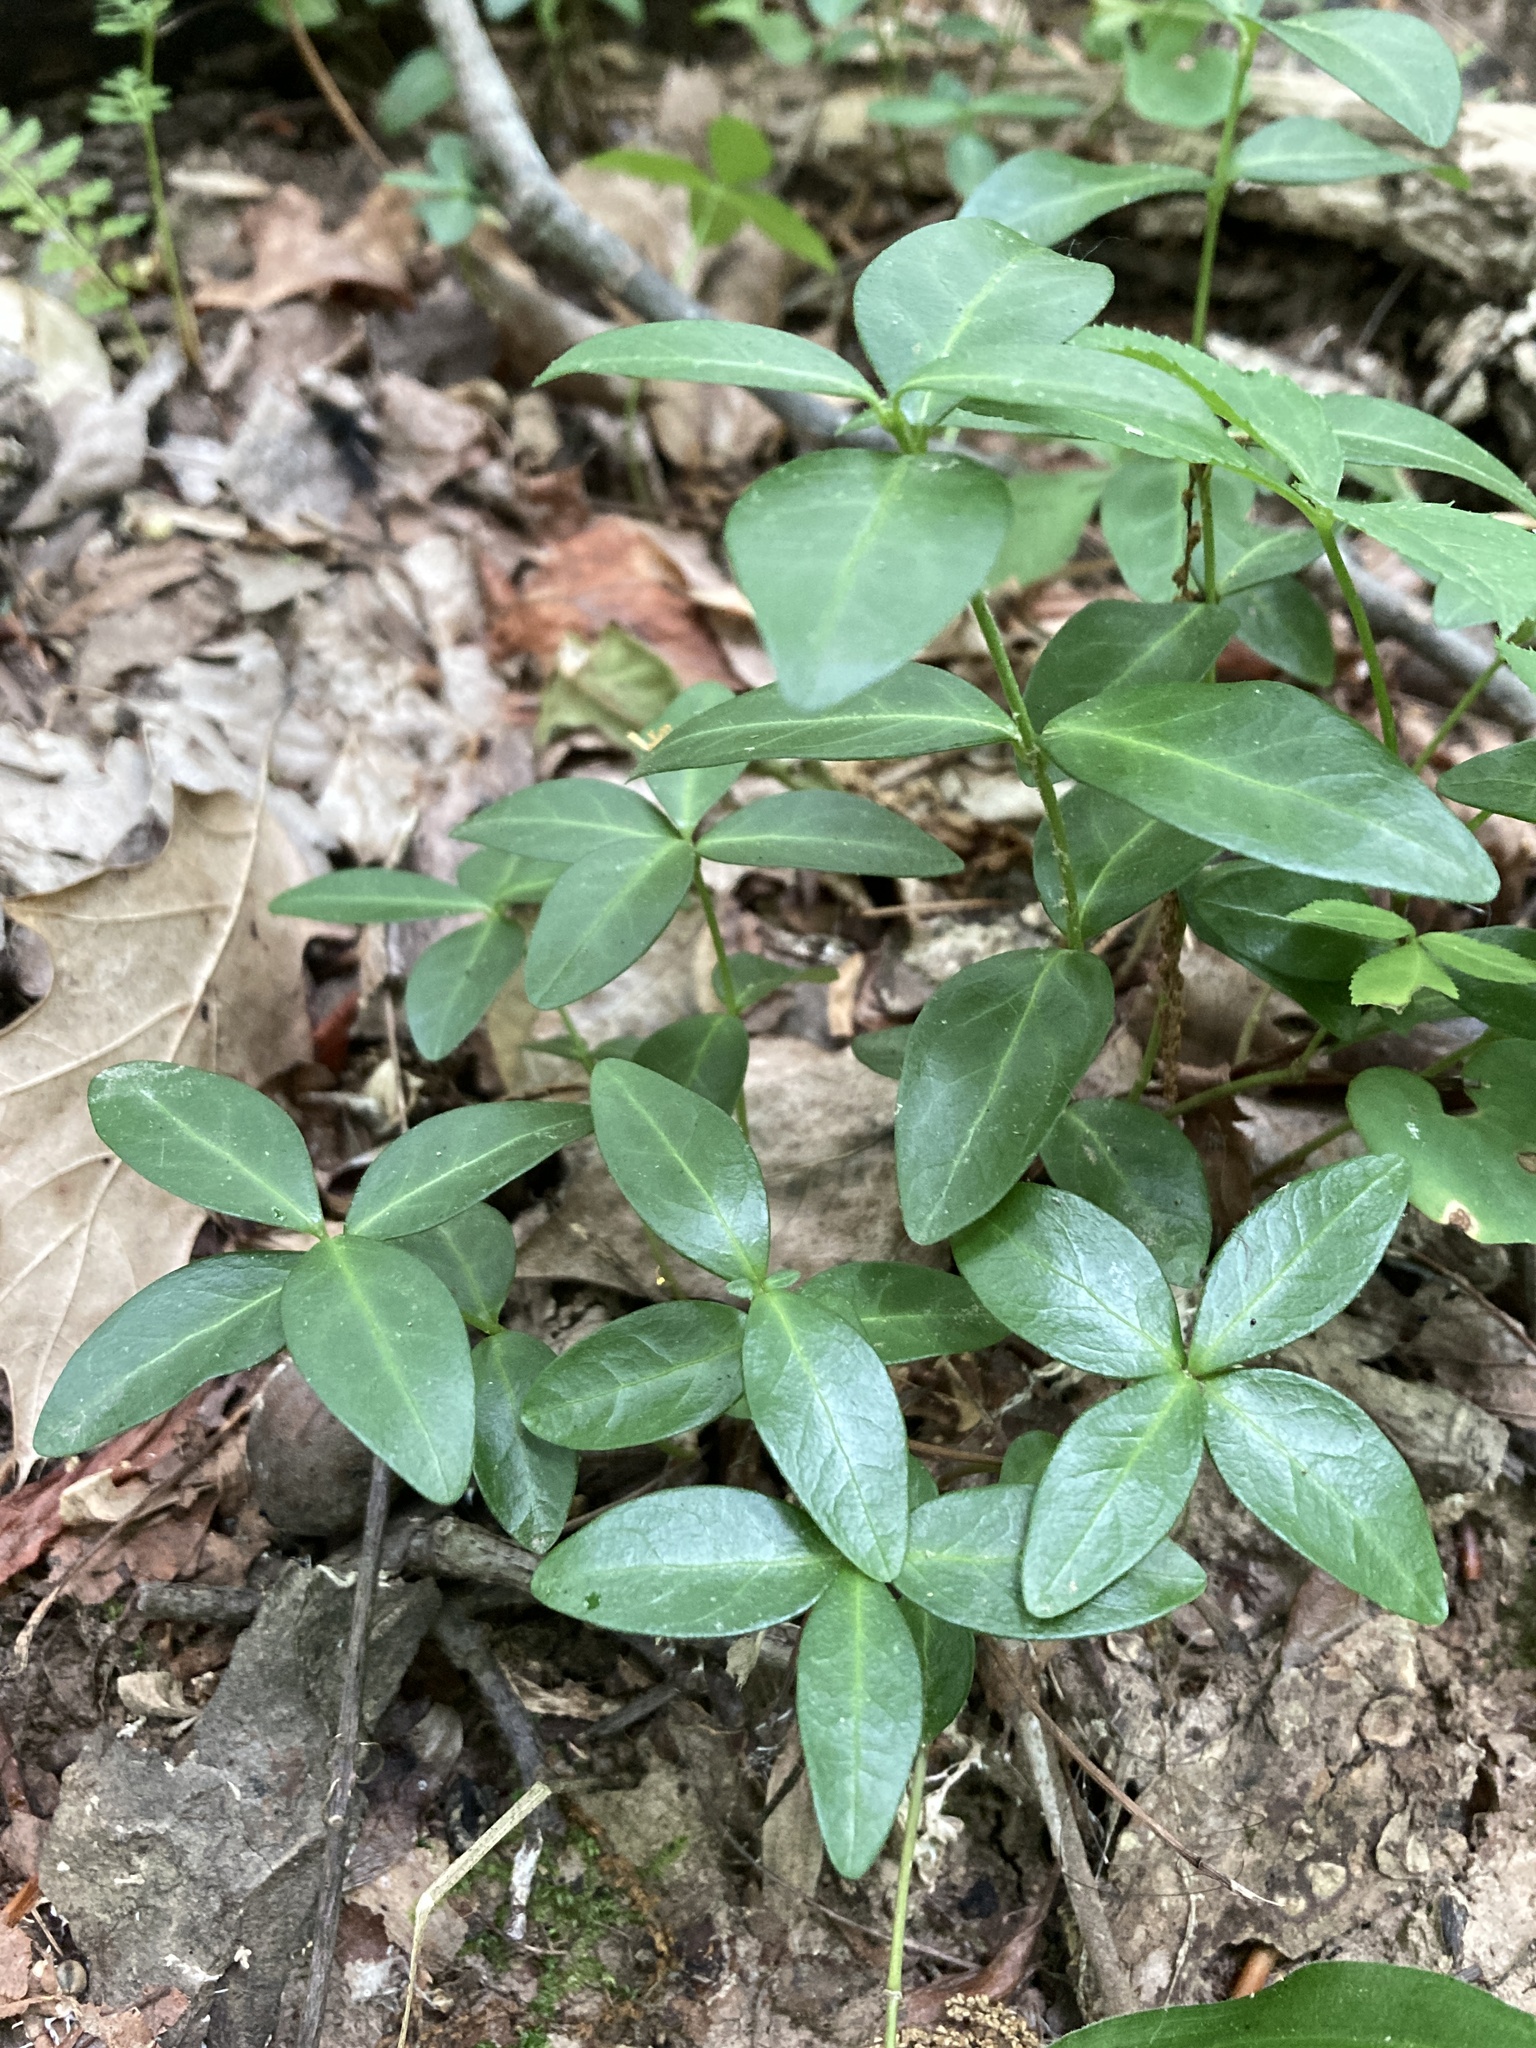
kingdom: Plantae
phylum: Tracheophyta
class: Magnoliopsida
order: Gentianales
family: Apocynaceae
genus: Vinca
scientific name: Vinca minor
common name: Lesser periwinkle
